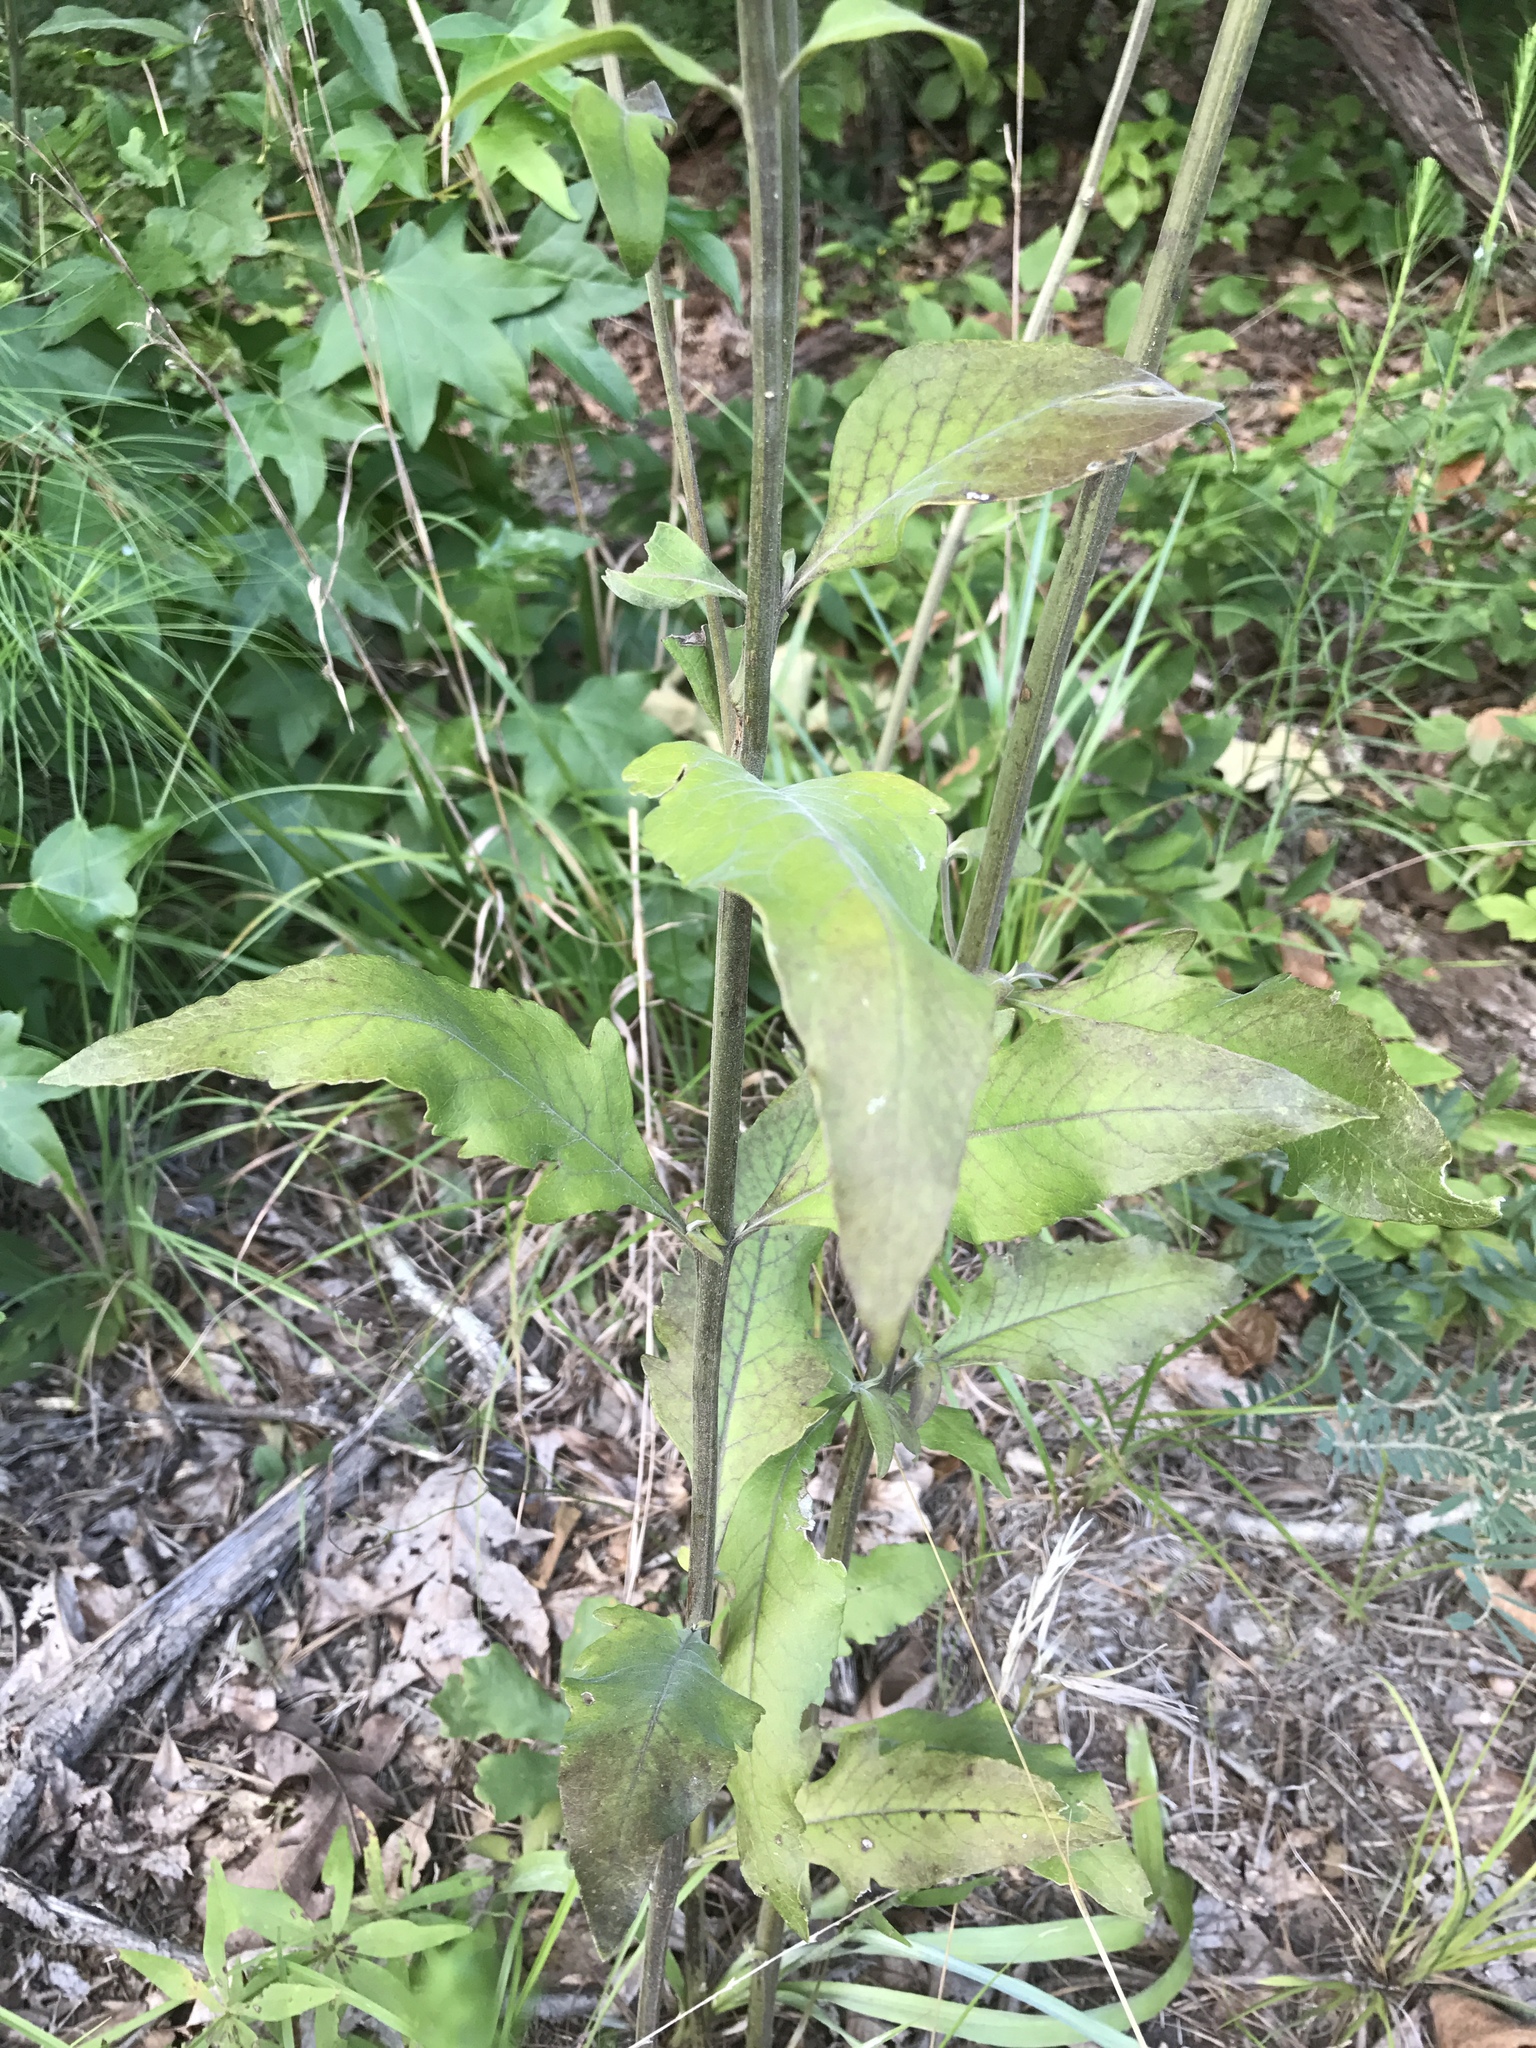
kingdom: Plantae
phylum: Tracheophyta
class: Magnoliopsida
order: Lamiales
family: Orobanchaceae
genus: Aureolaria
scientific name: Aureolaria virginica
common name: Downy false foxglove
